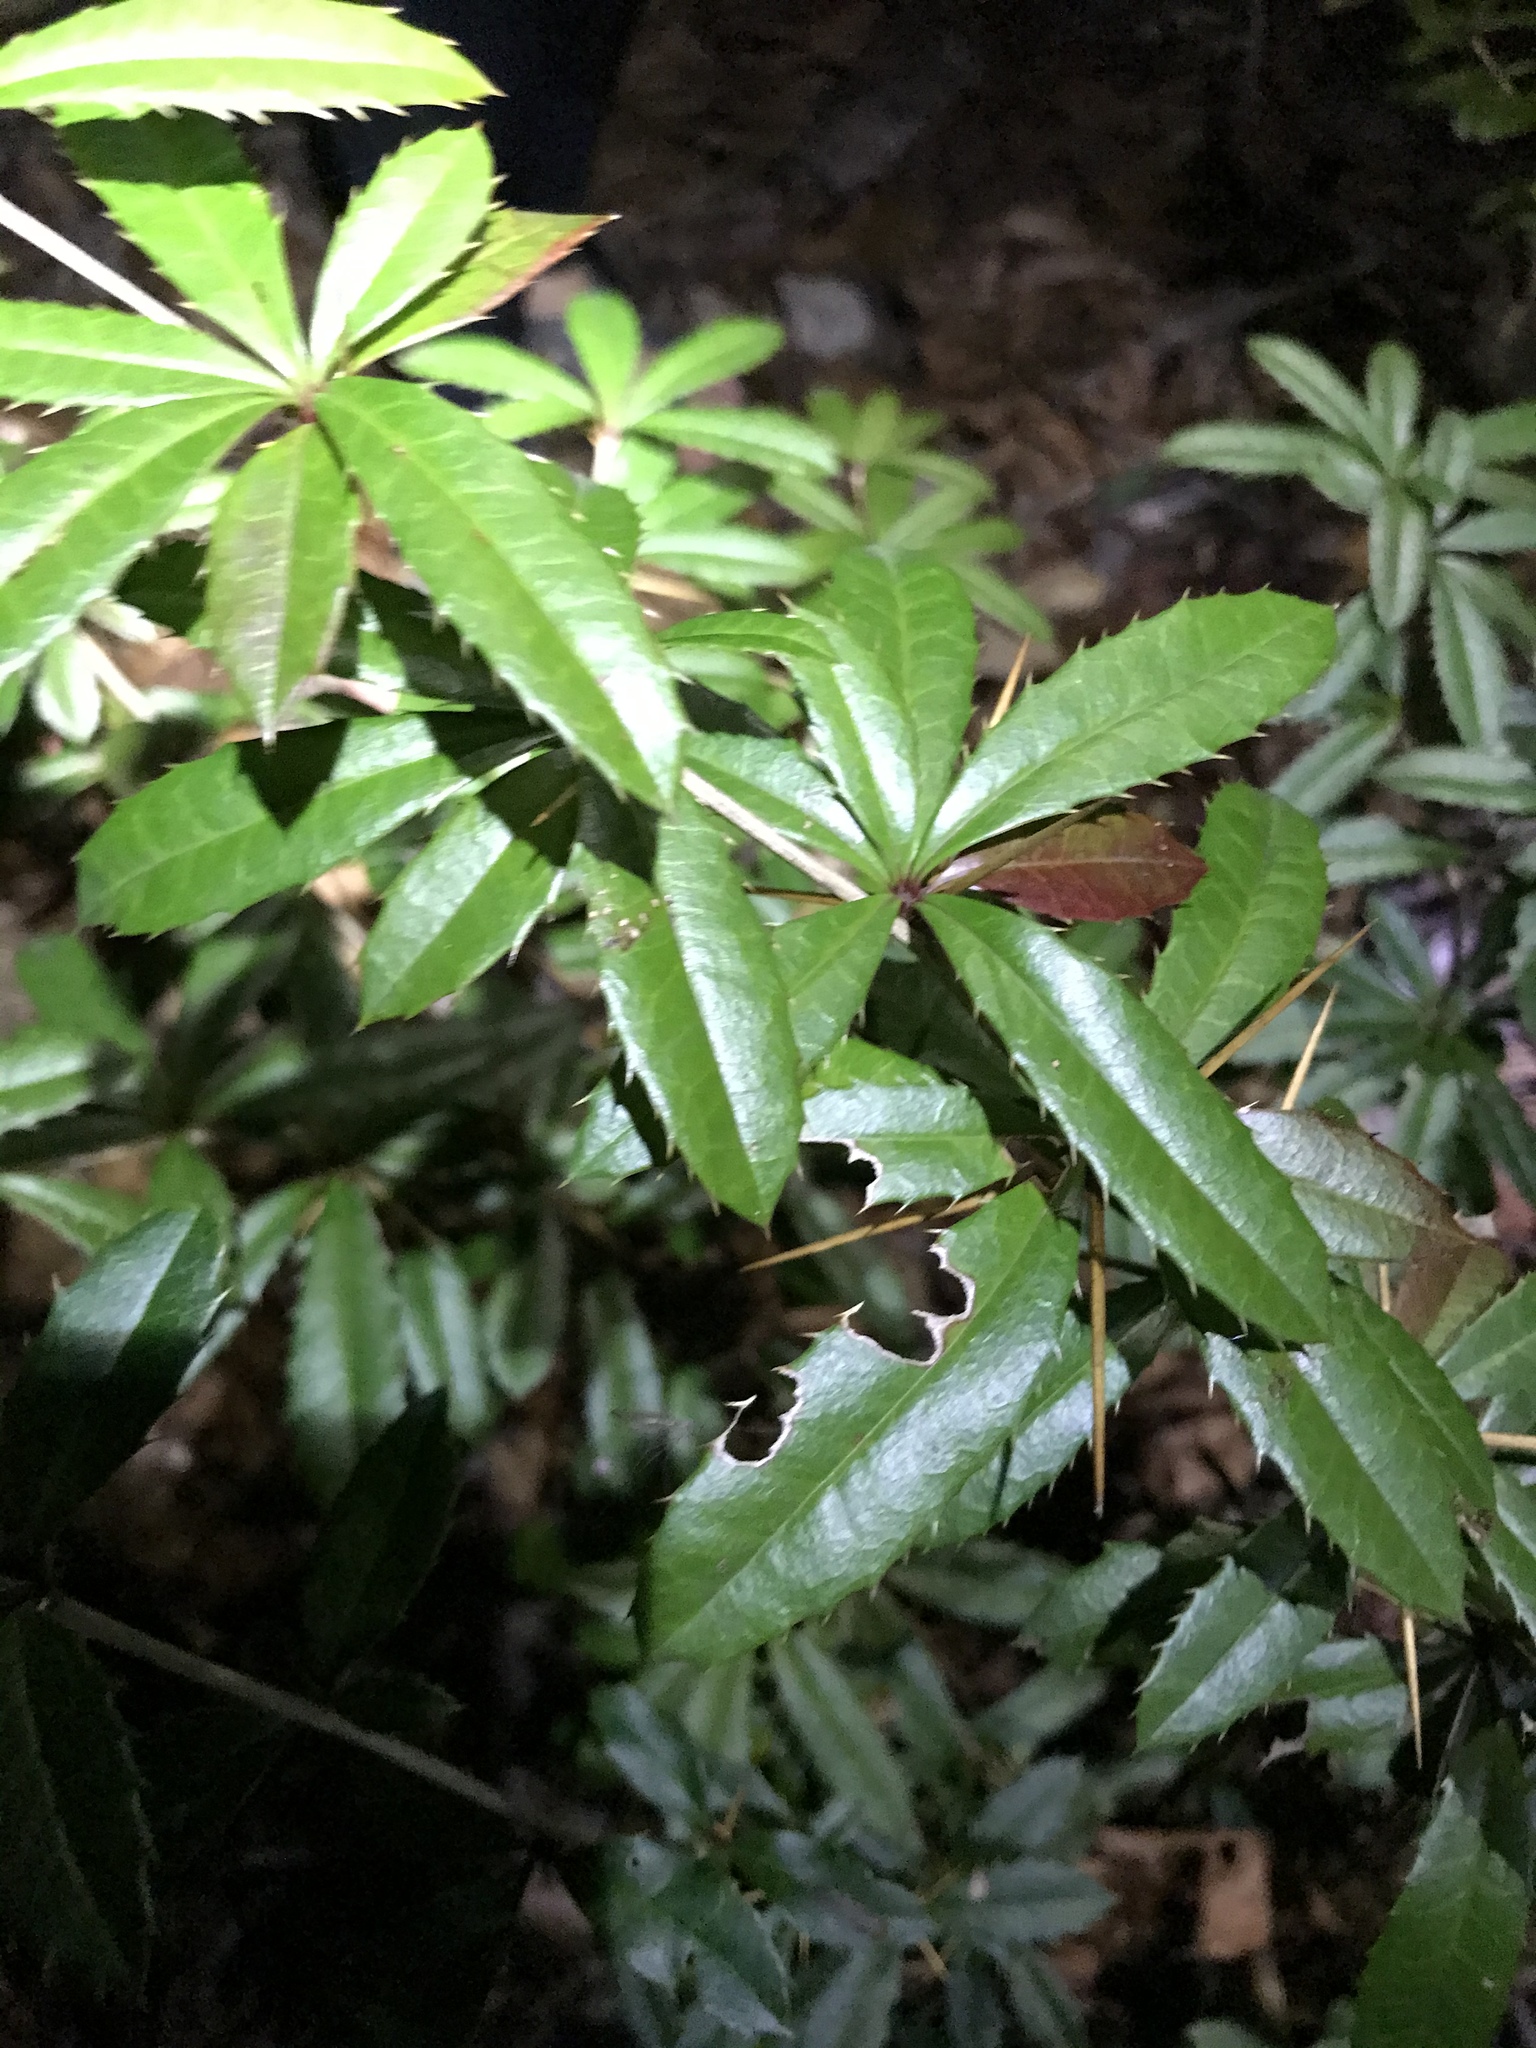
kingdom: Plantae
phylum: Tracheophyta
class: Magnoliopsida
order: Ranunculales
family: Berberidaceae
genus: Berberis
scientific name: Berberis julianae
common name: Wintergreen barberry
